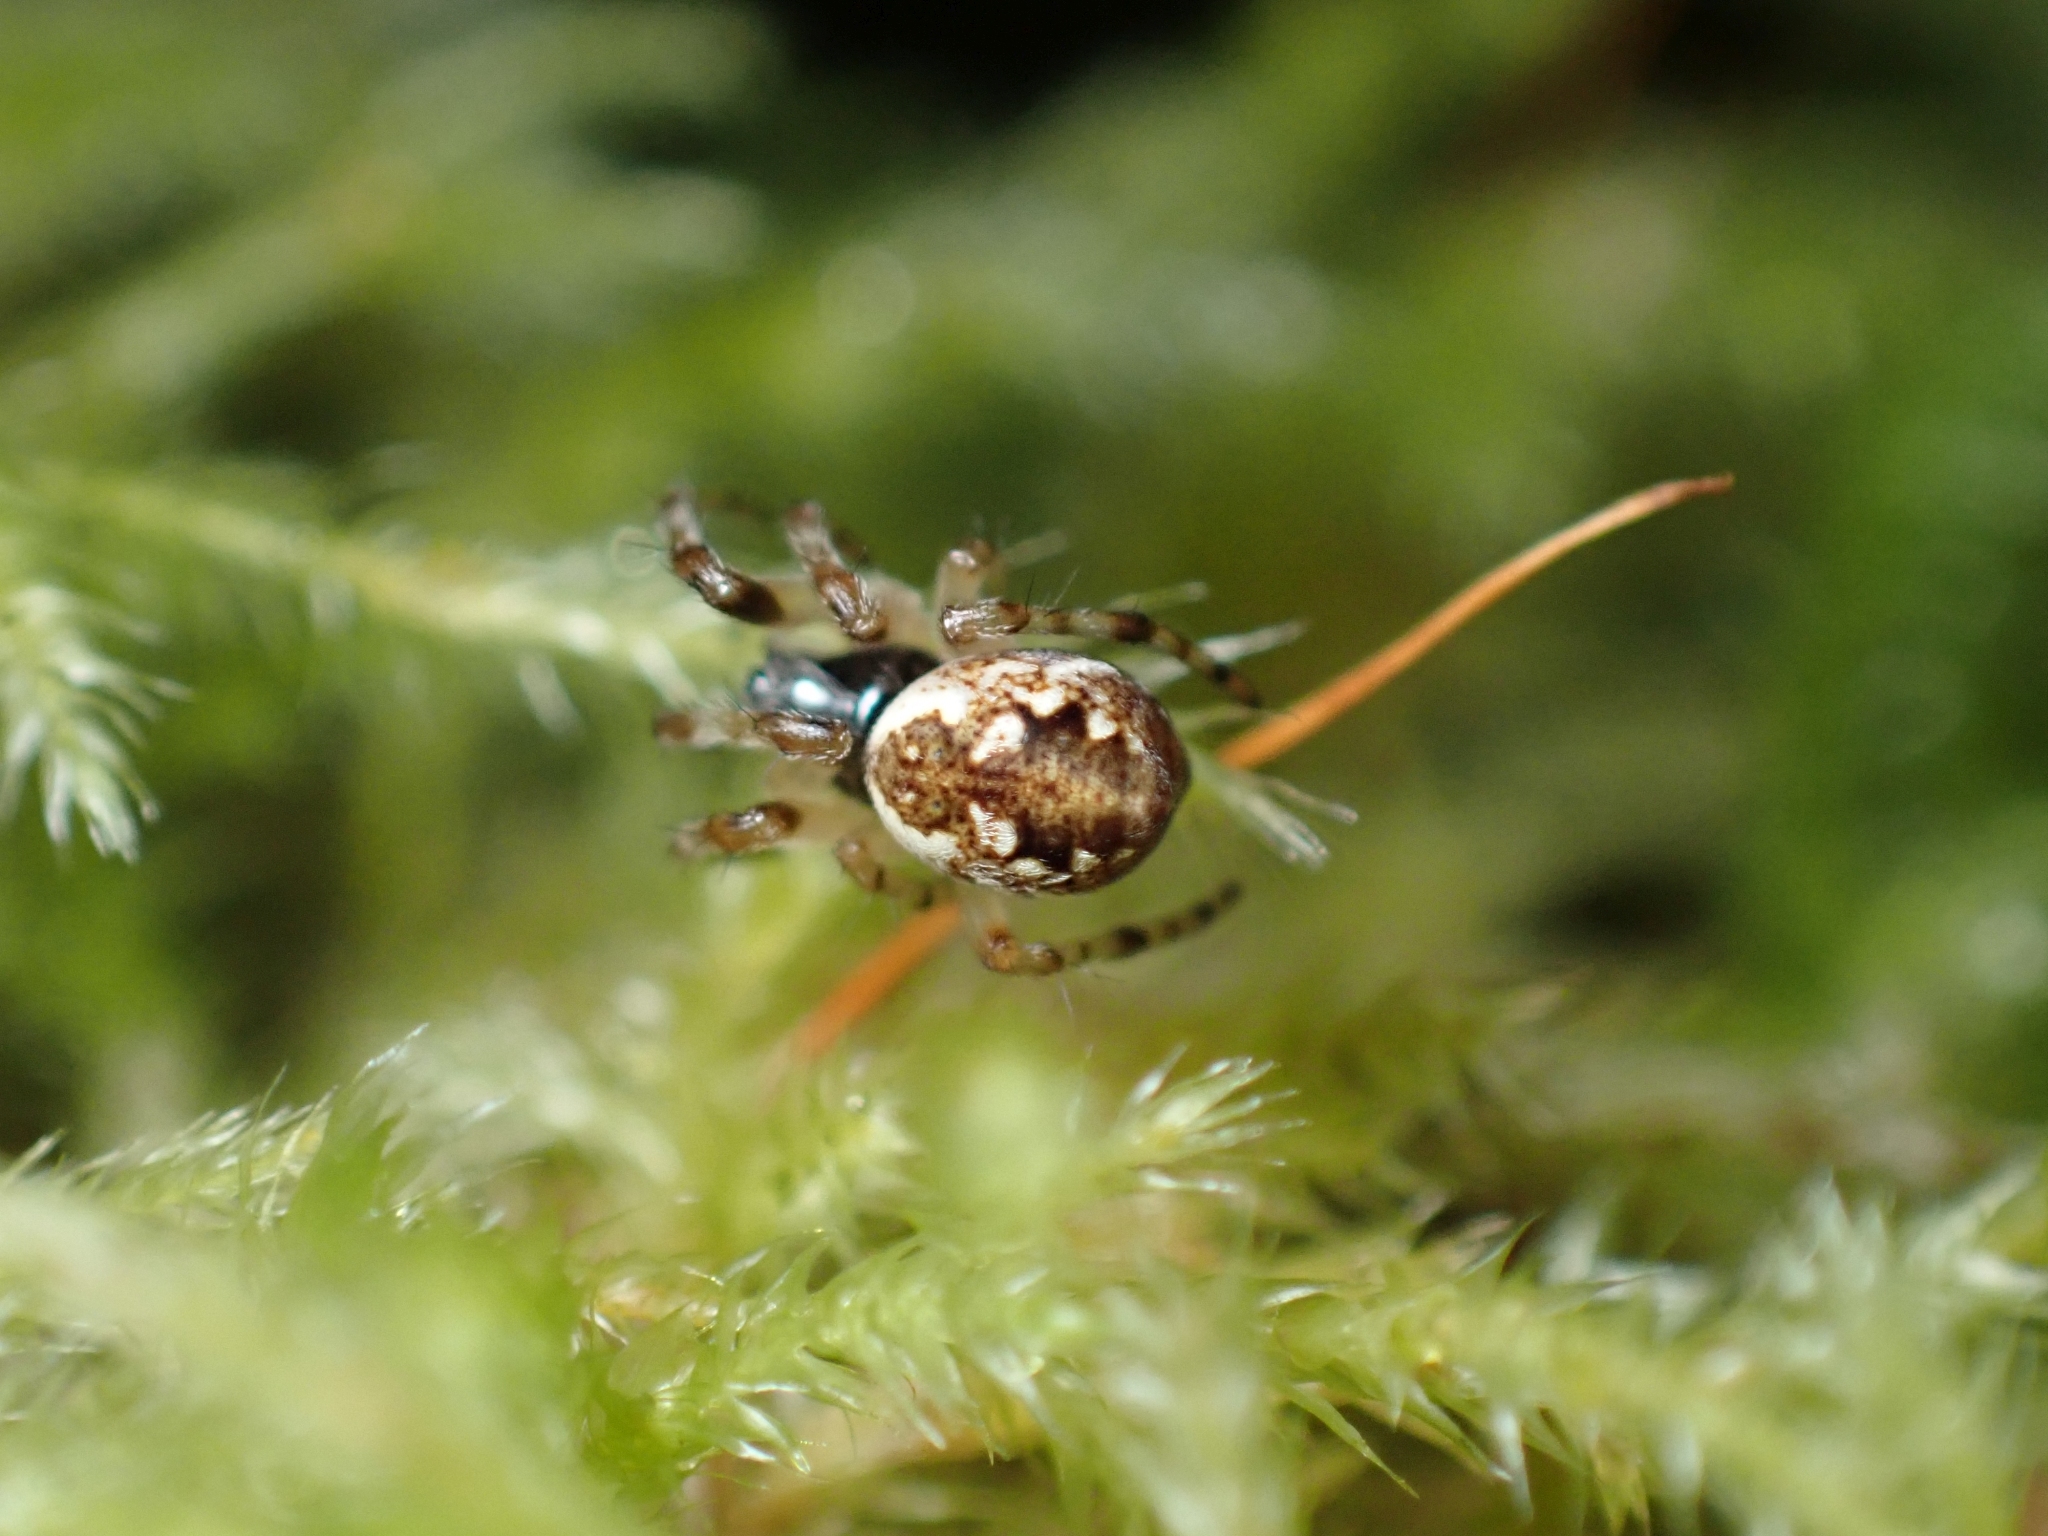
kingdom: Animalia
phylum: Arthropoda
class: Arachnida
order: Araneae
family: Araneidae
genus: Cyclosa
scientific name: Cyclosa conica
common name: Conical trashline orbweaver
